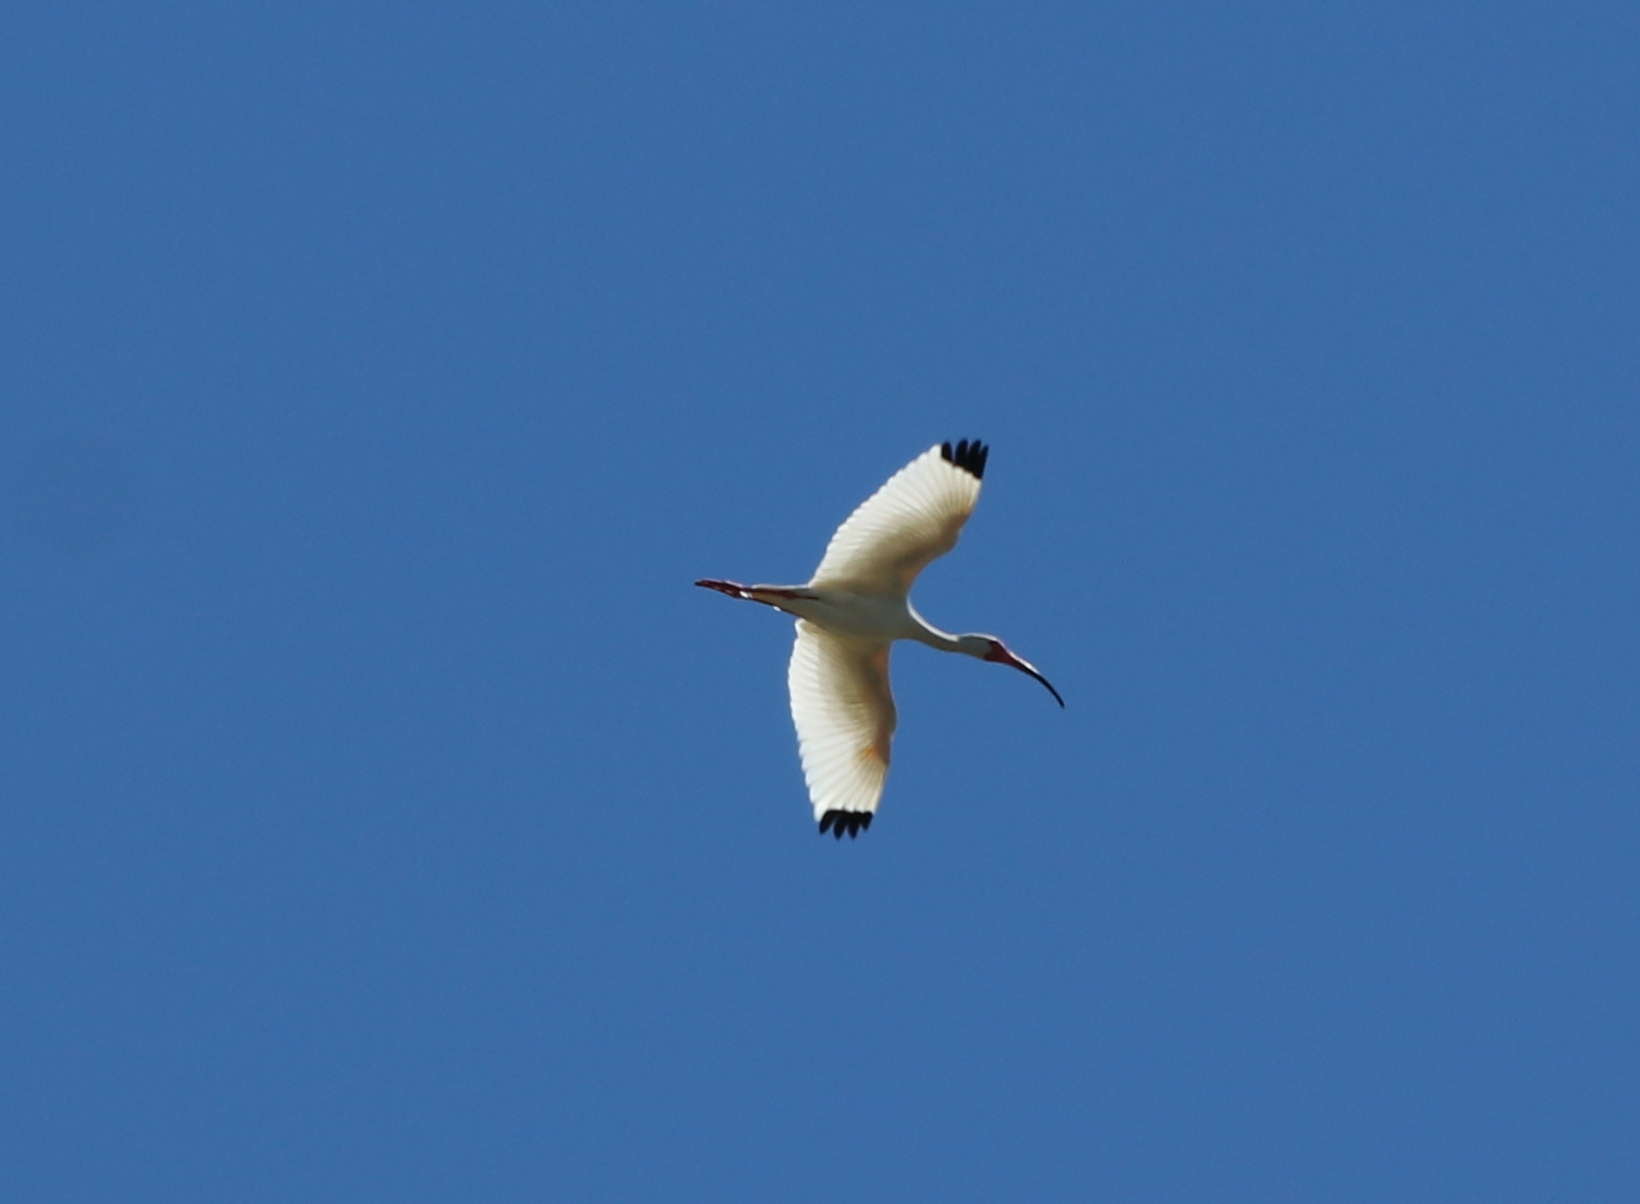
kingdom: Animalia
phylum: Chordata
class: Aves
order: Pelecaniformes
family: Threskiornithidae
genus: Eudocimus
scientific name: Eudocimus albus
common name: White ibis
